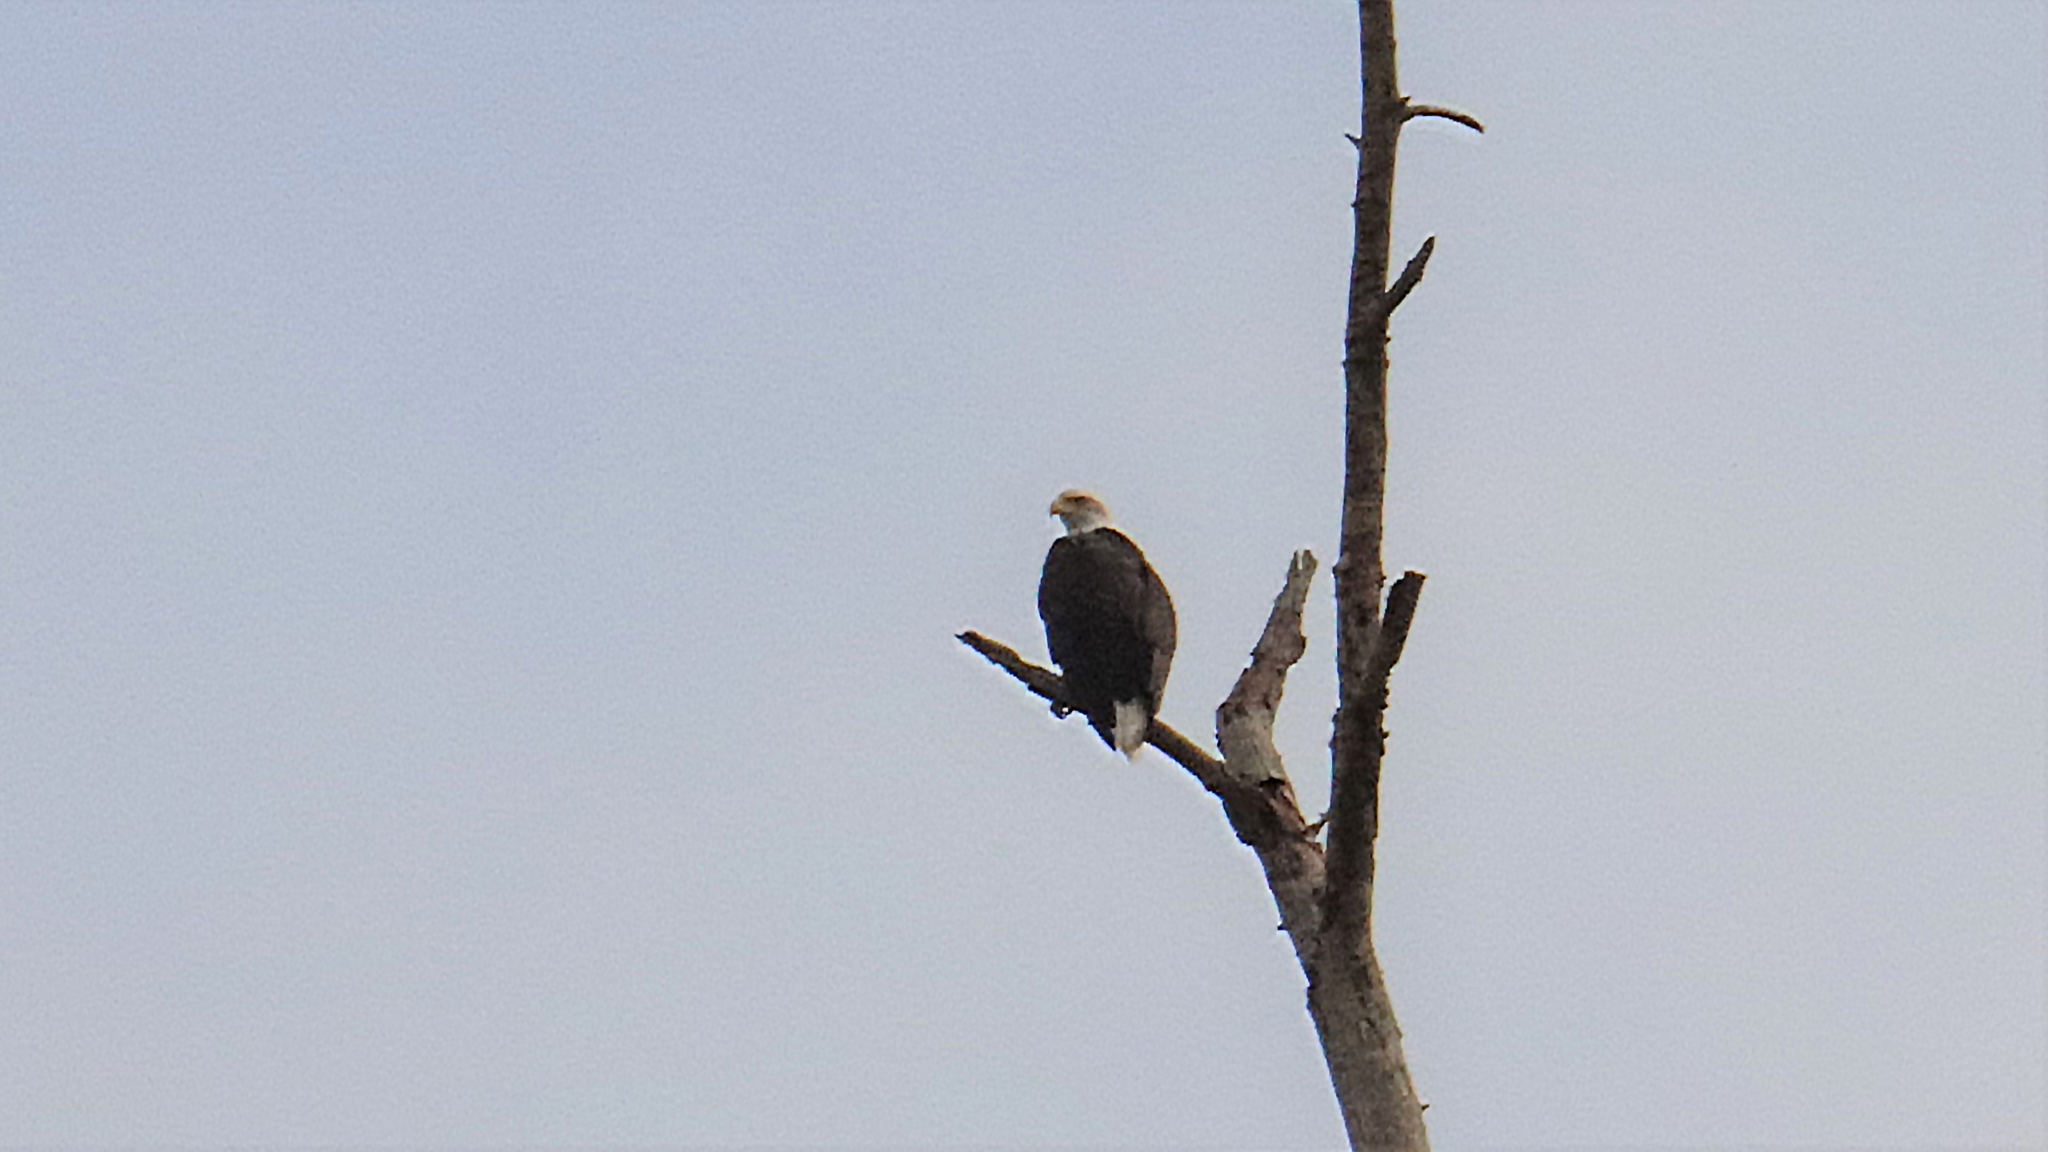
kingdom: Animalia
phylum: Chordata
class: Aves
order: Accipitriformes
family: Accipitridae
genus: Haliaeetus
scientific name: Haliaeetus leucocephalus
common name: Bald eagle
